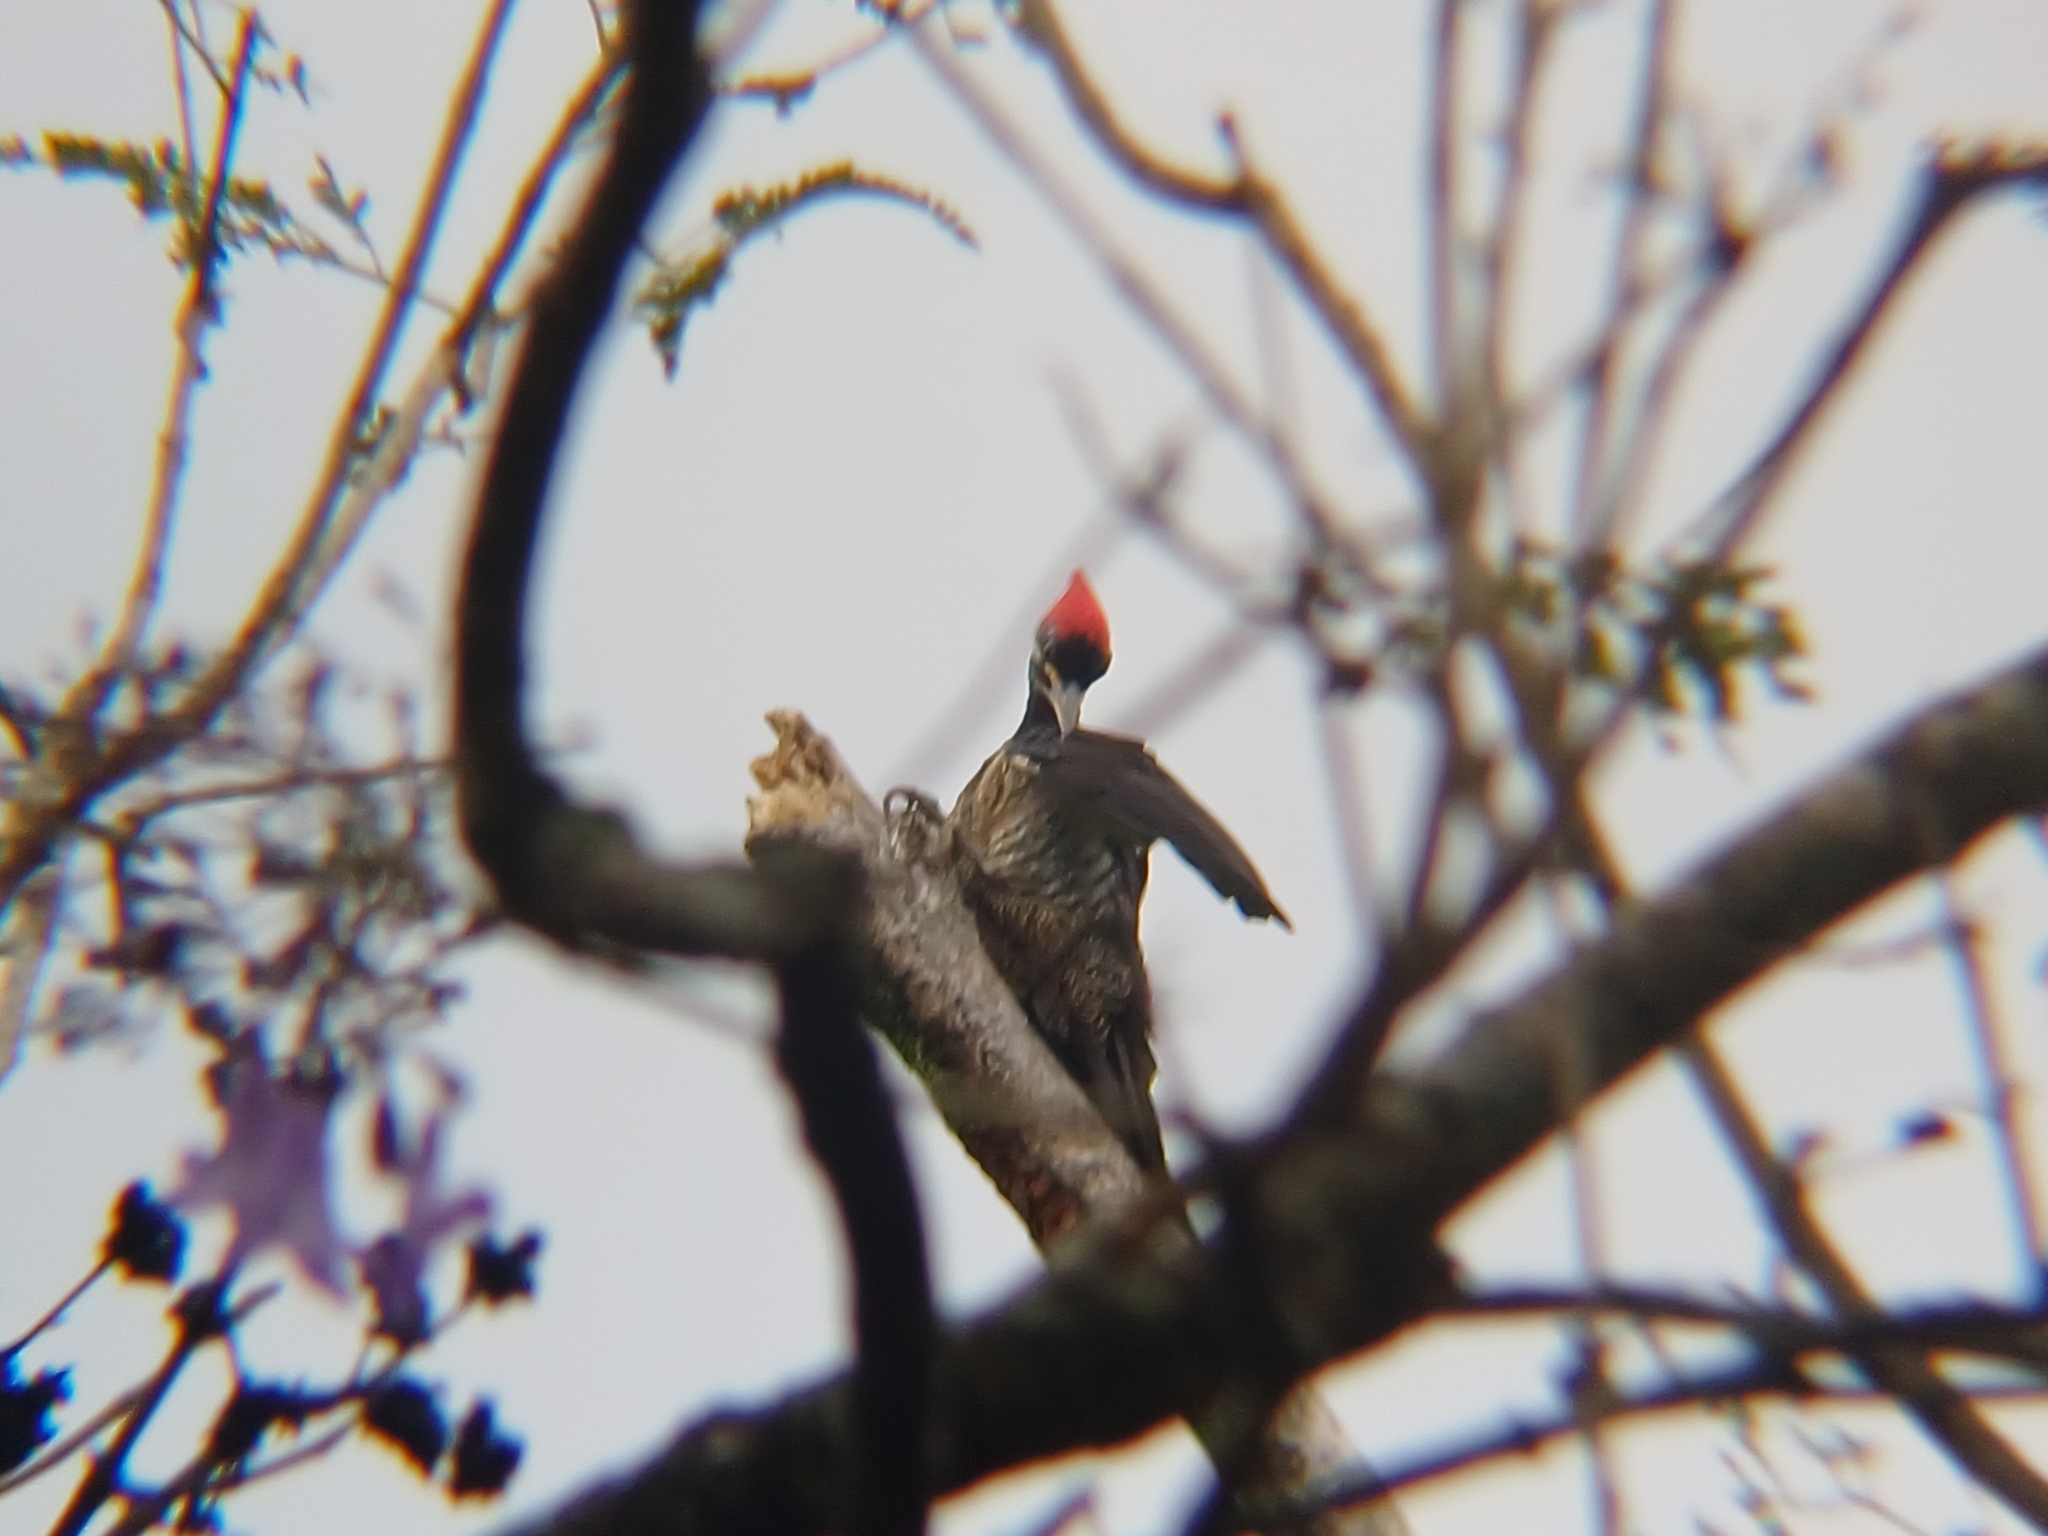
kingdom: Animalia
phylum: Chordata
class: Aves
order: Piciformes
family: Picidae
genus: Dryocopus
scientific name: Dryocopus lineatus
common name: Lineated woodpecker
